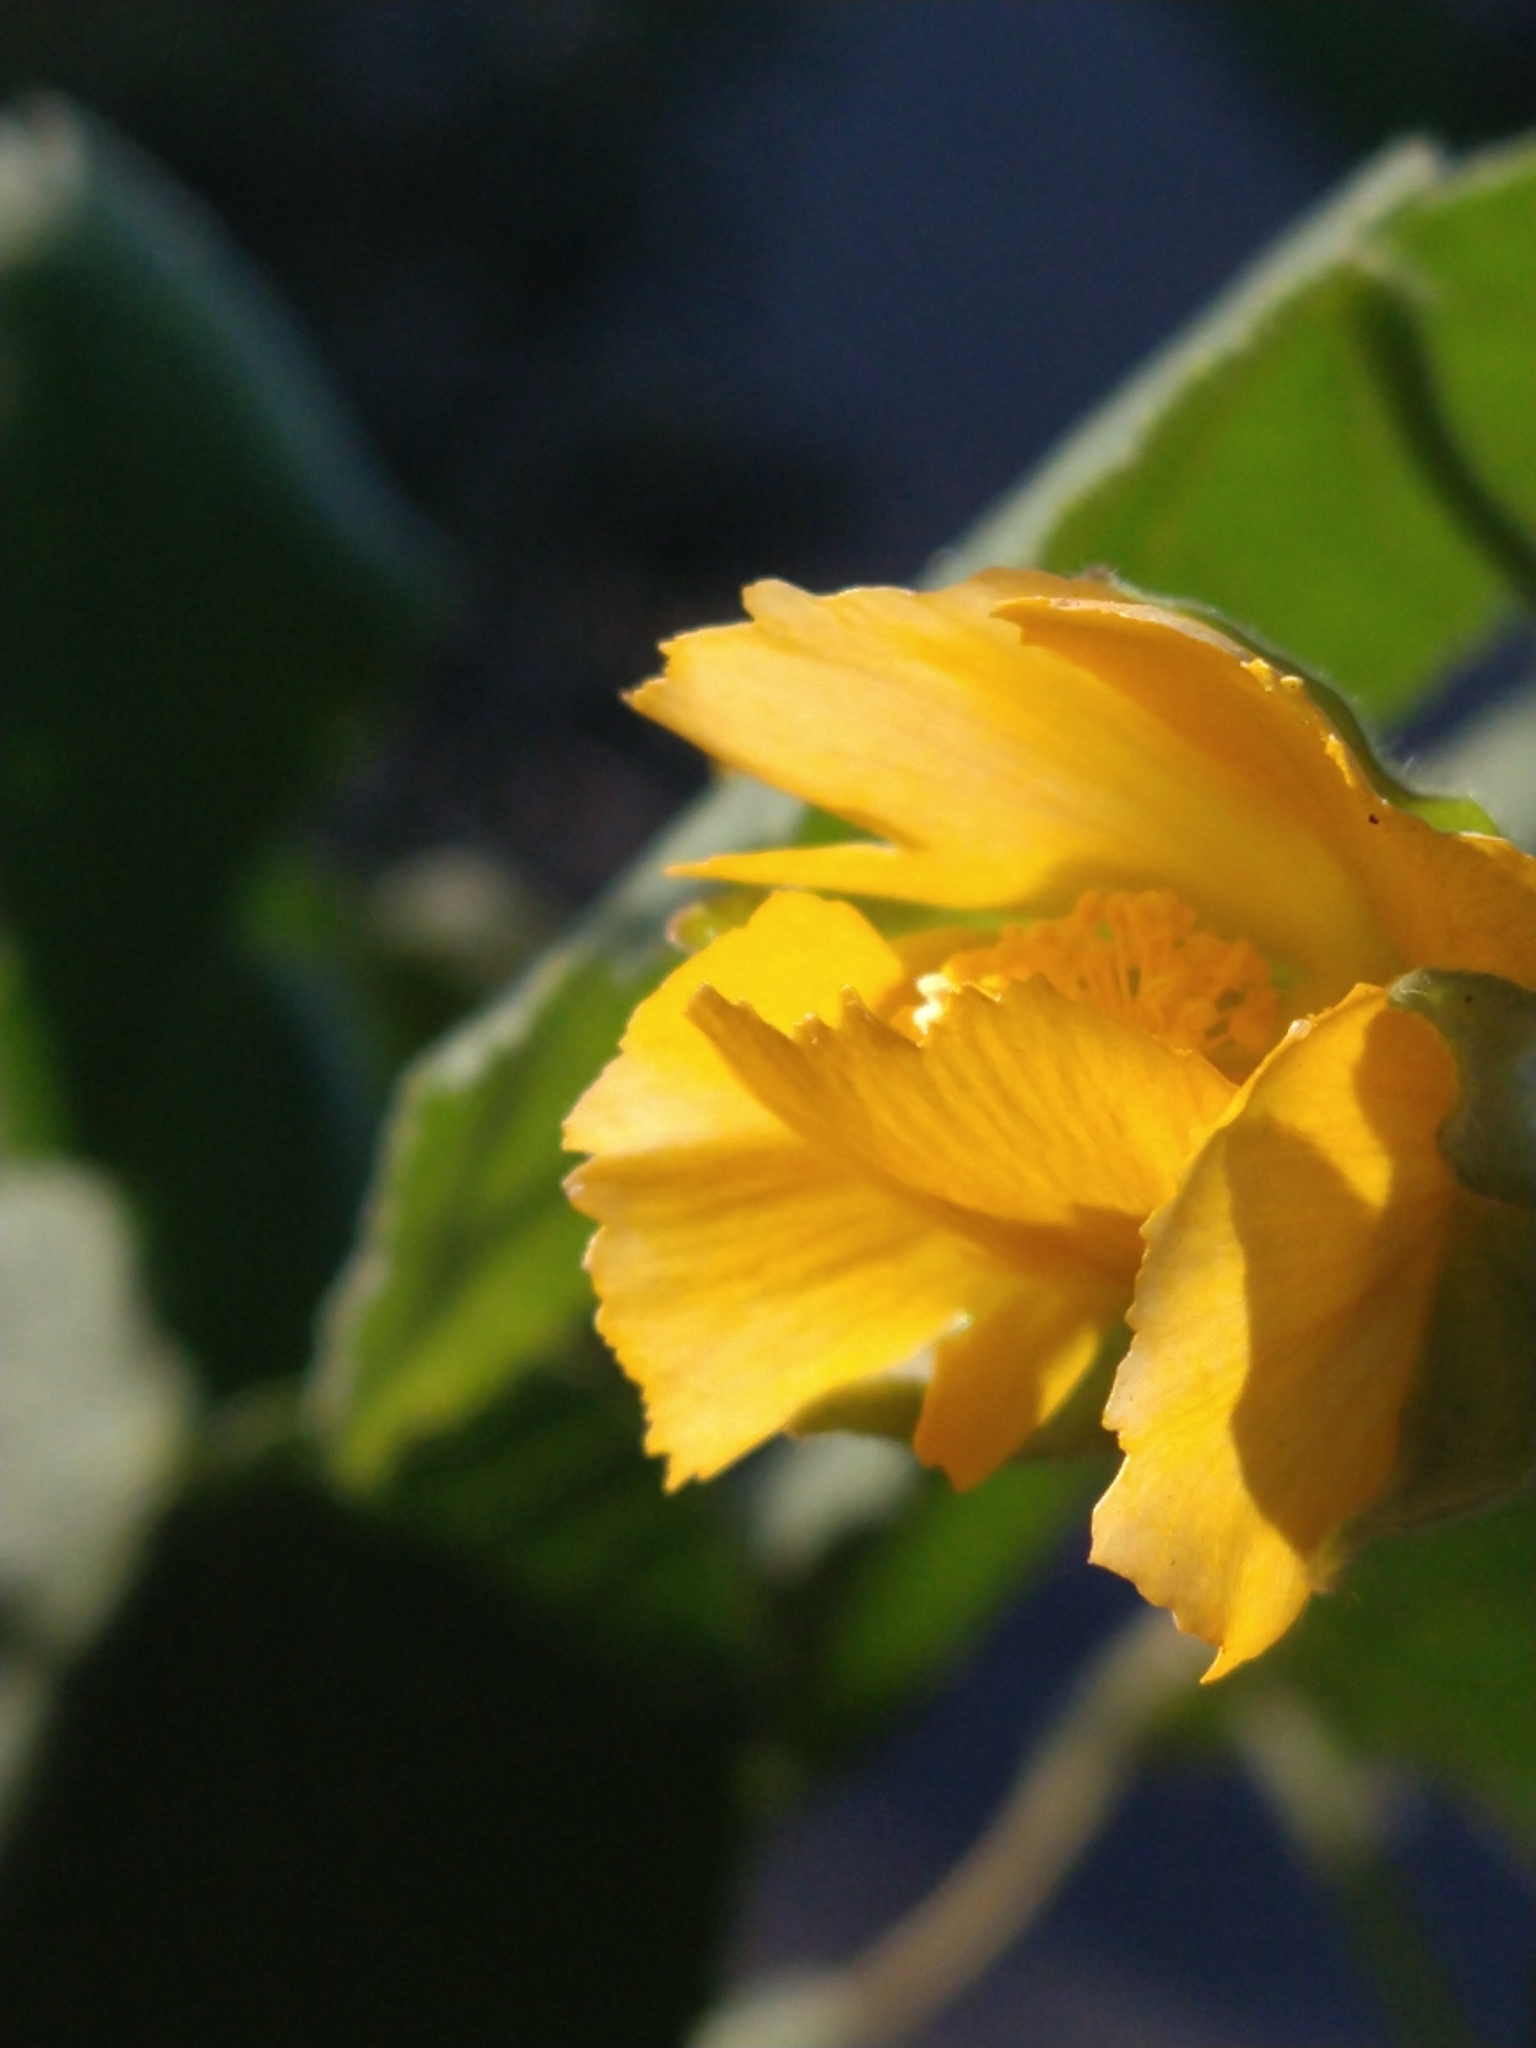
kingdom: Plantae
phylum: Tracheophyta
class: Magnoliopsida
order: Malvales
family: Malvaceae
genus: Abutilon
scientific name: Abutilon grandifolium
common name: Hairy abutilon
